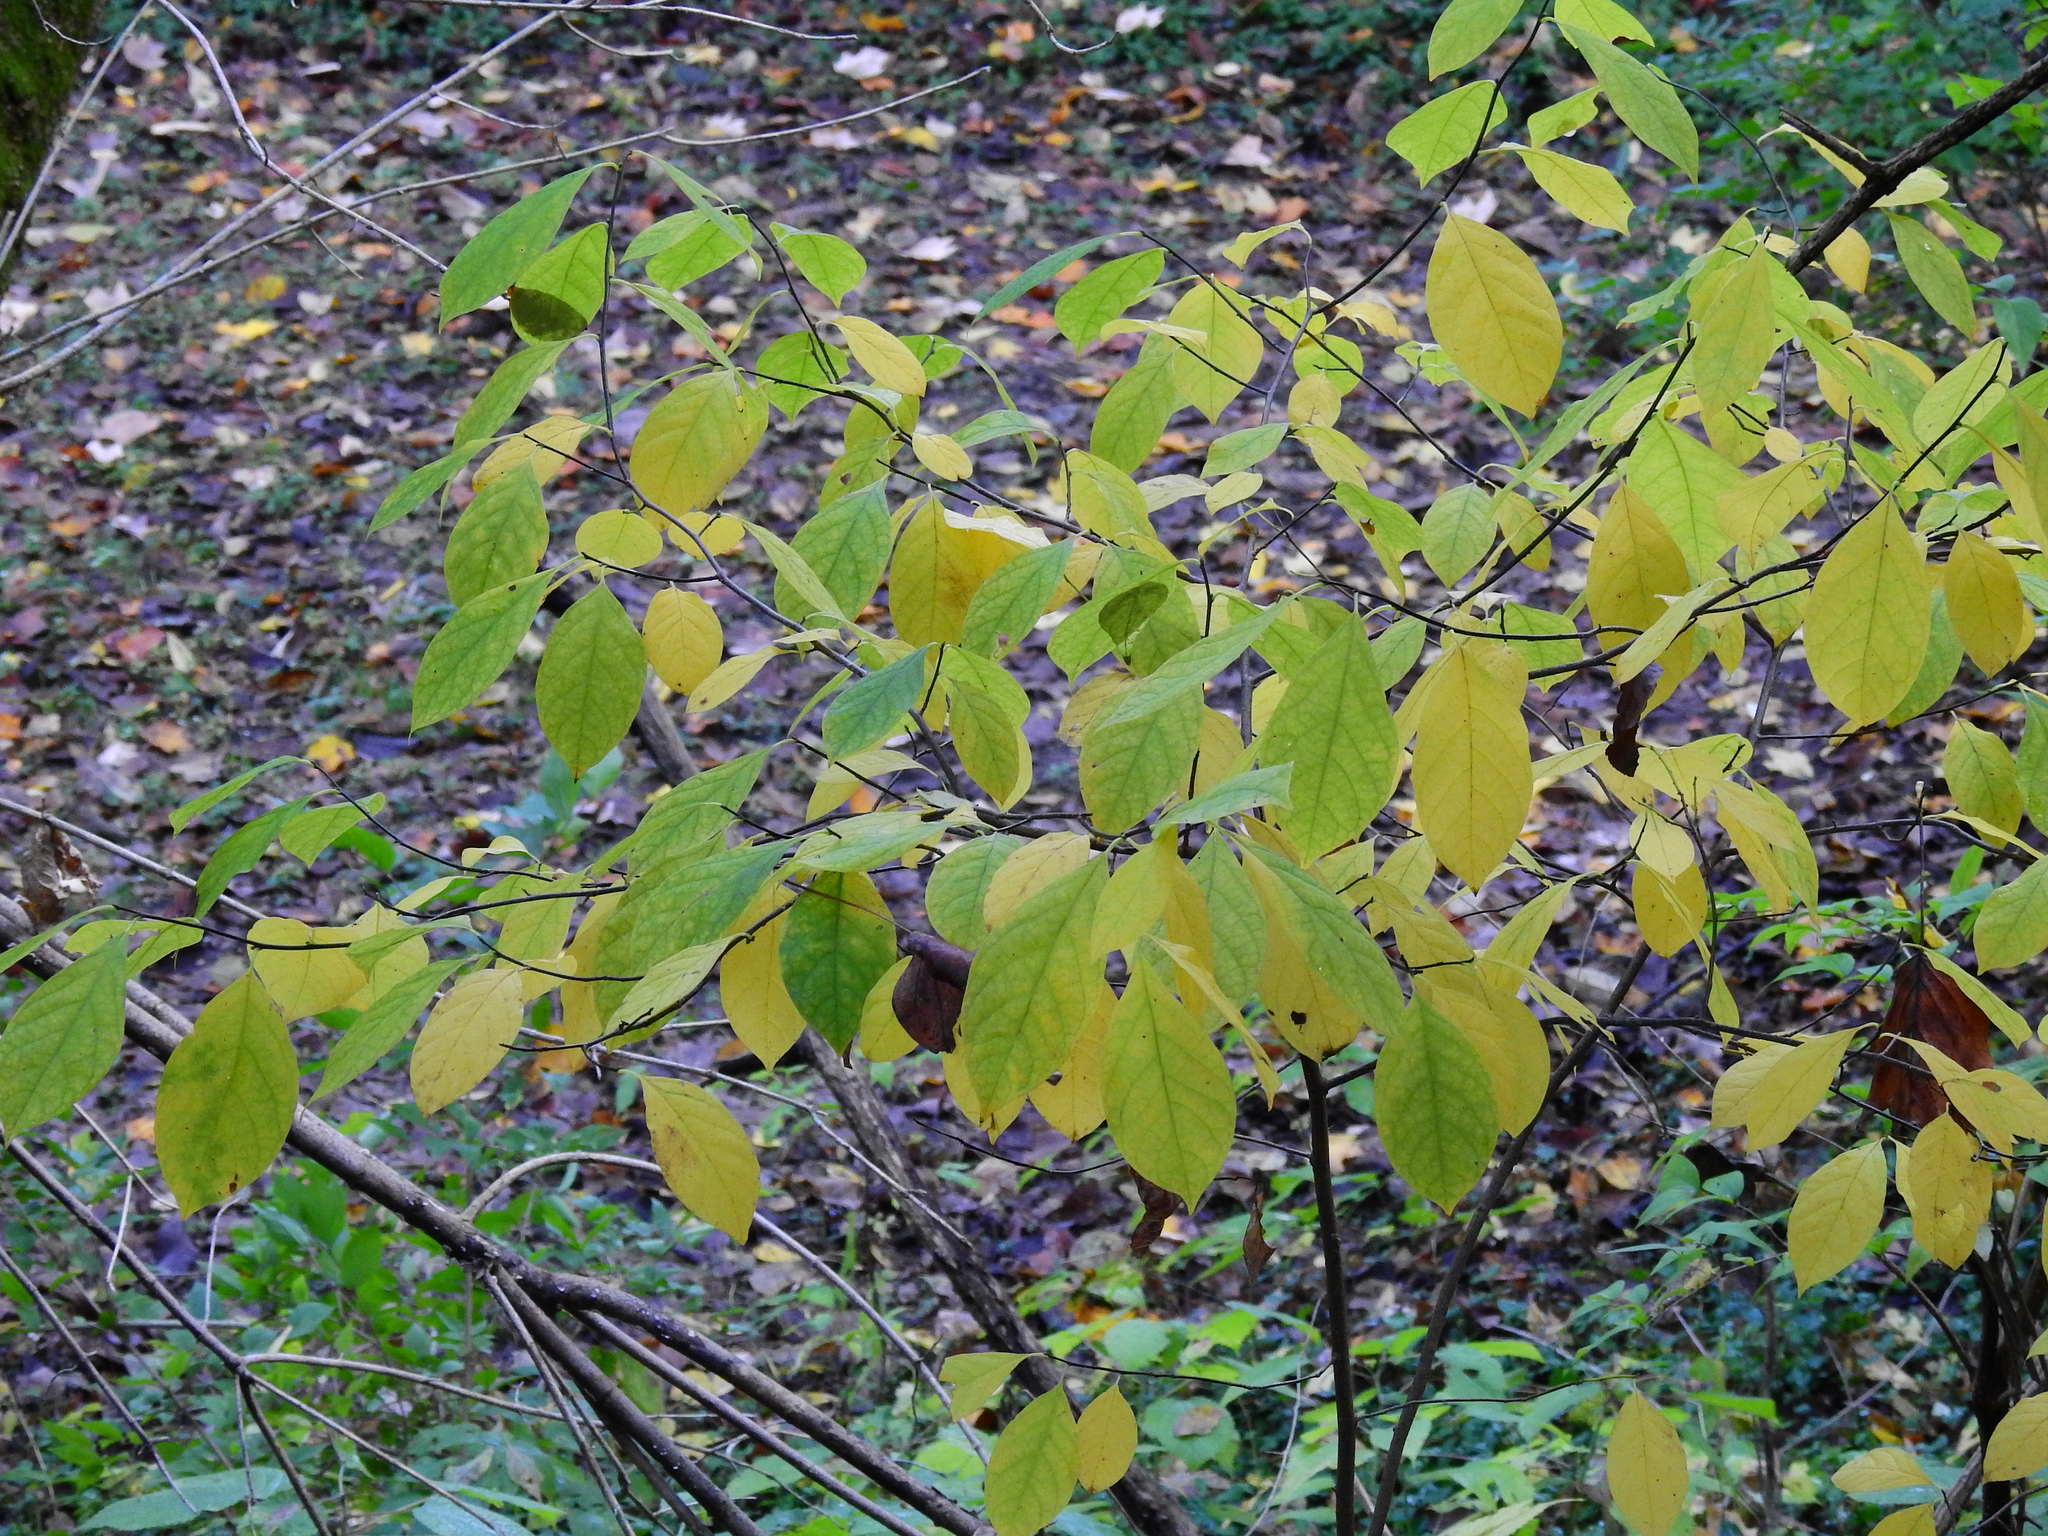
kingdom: Plantae
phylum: Tracheophyta
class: Magnoliopsida
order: Laurales
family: Lauraceae
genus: Lindera
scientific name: Lindera benzoin
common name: Spicebush
